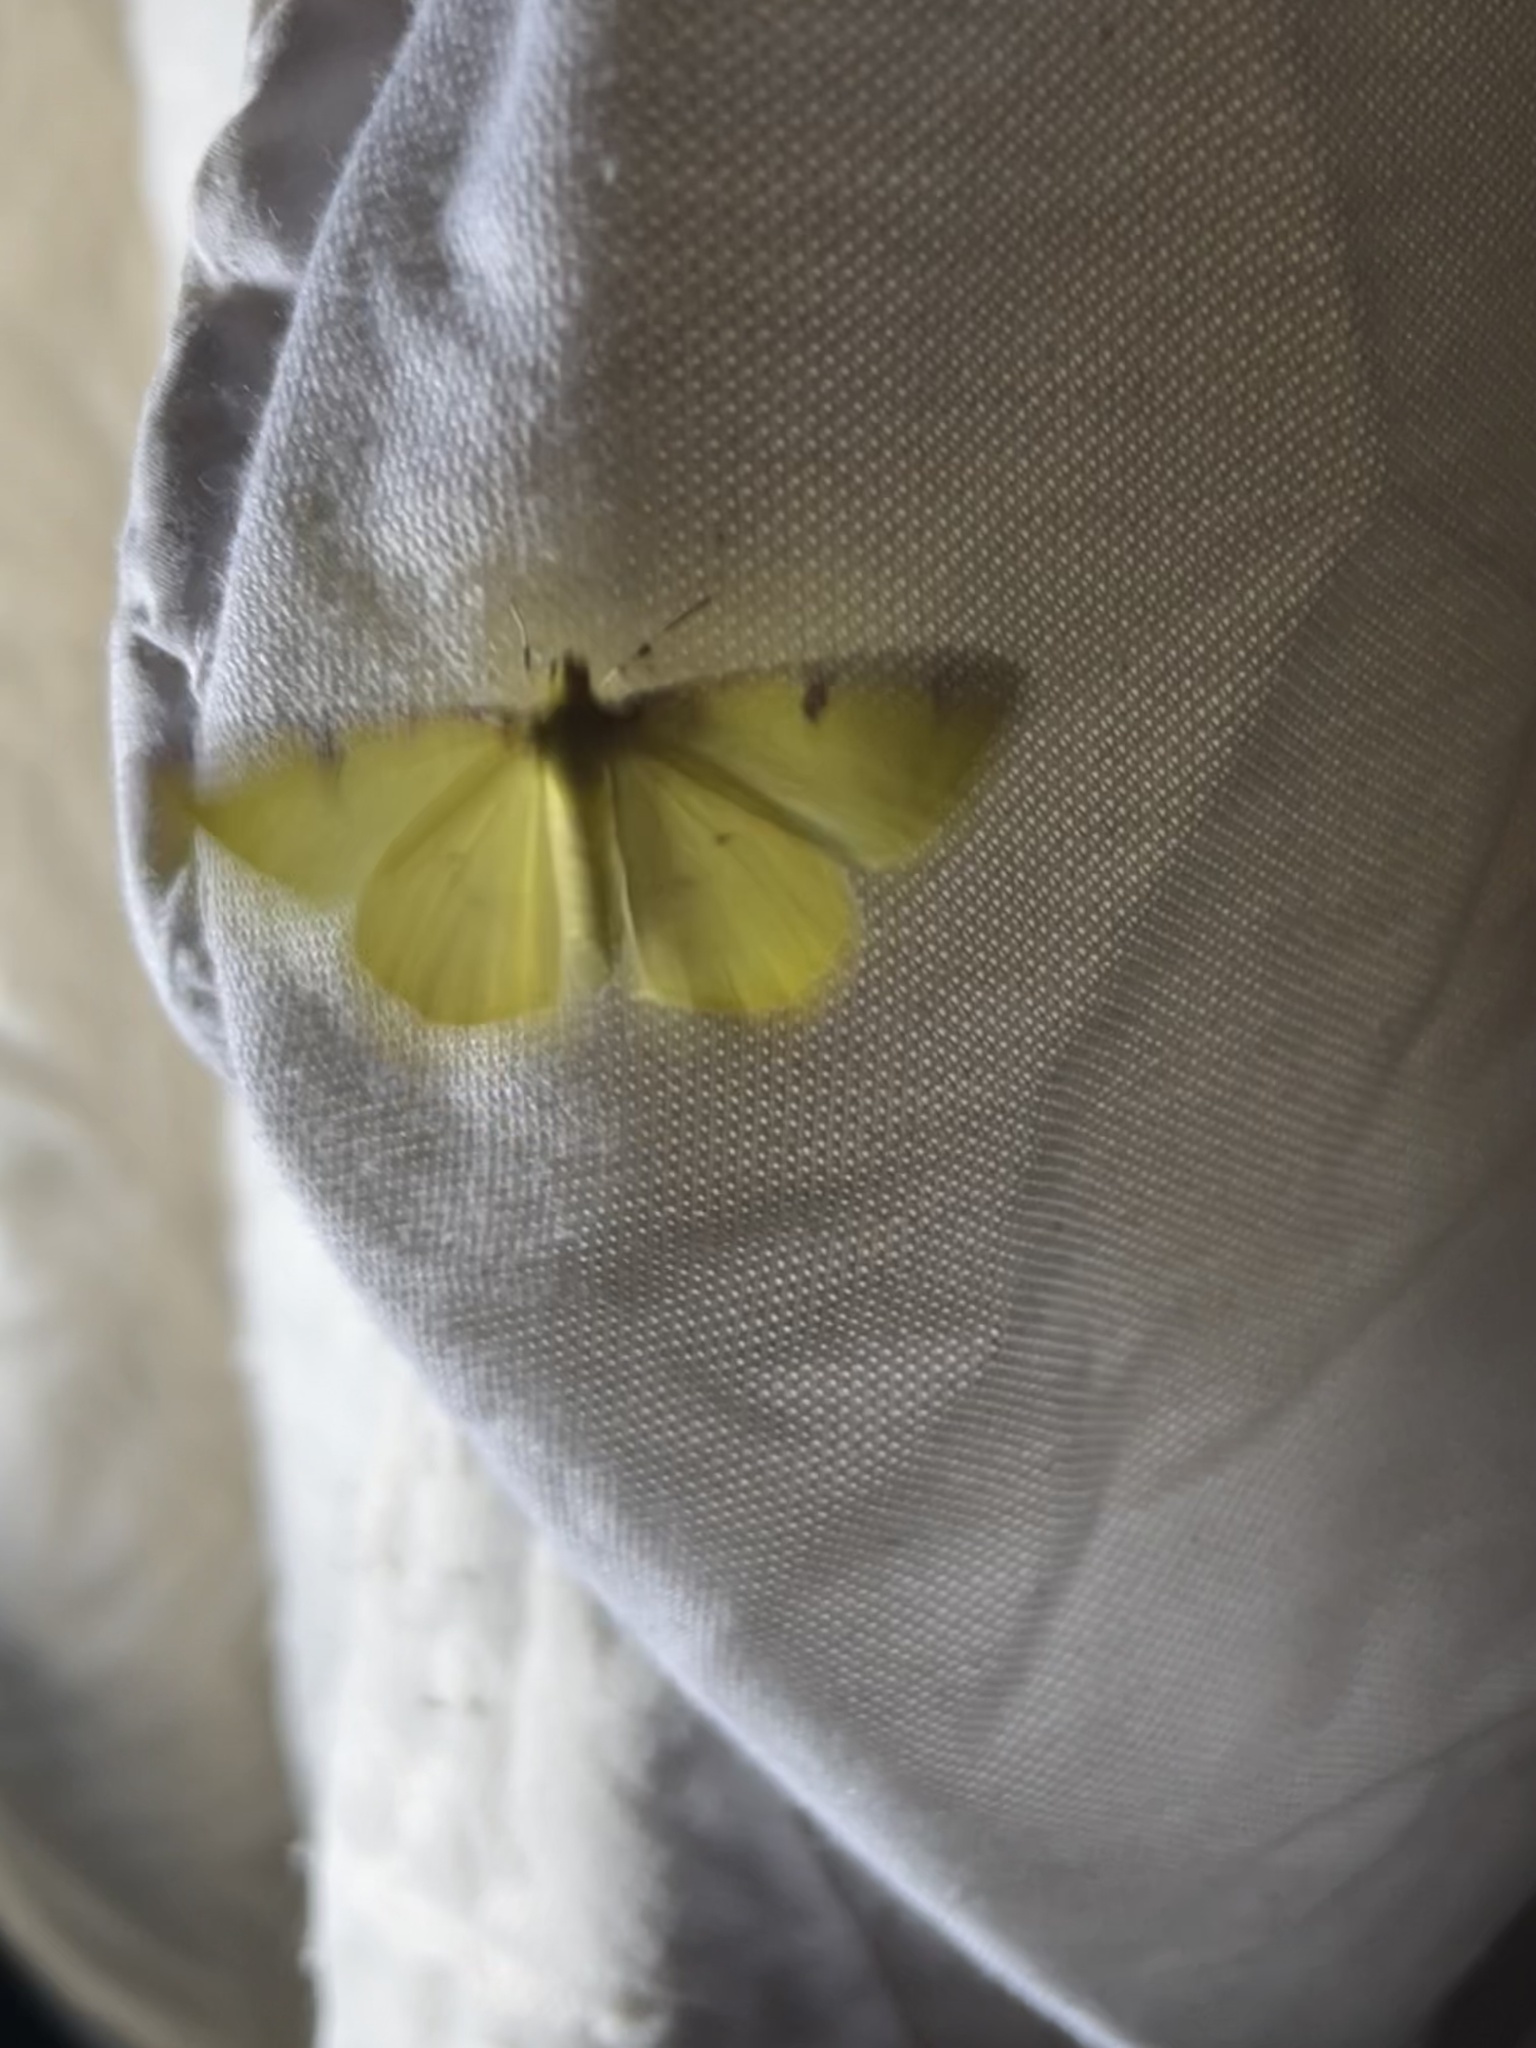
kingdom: Animalia
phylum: Arthropoda
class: Insecta
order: Lepidoptera
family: Geometridae
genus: Opisthograptis
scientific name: Opisthograptis luteolata
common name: Brimstone moth
